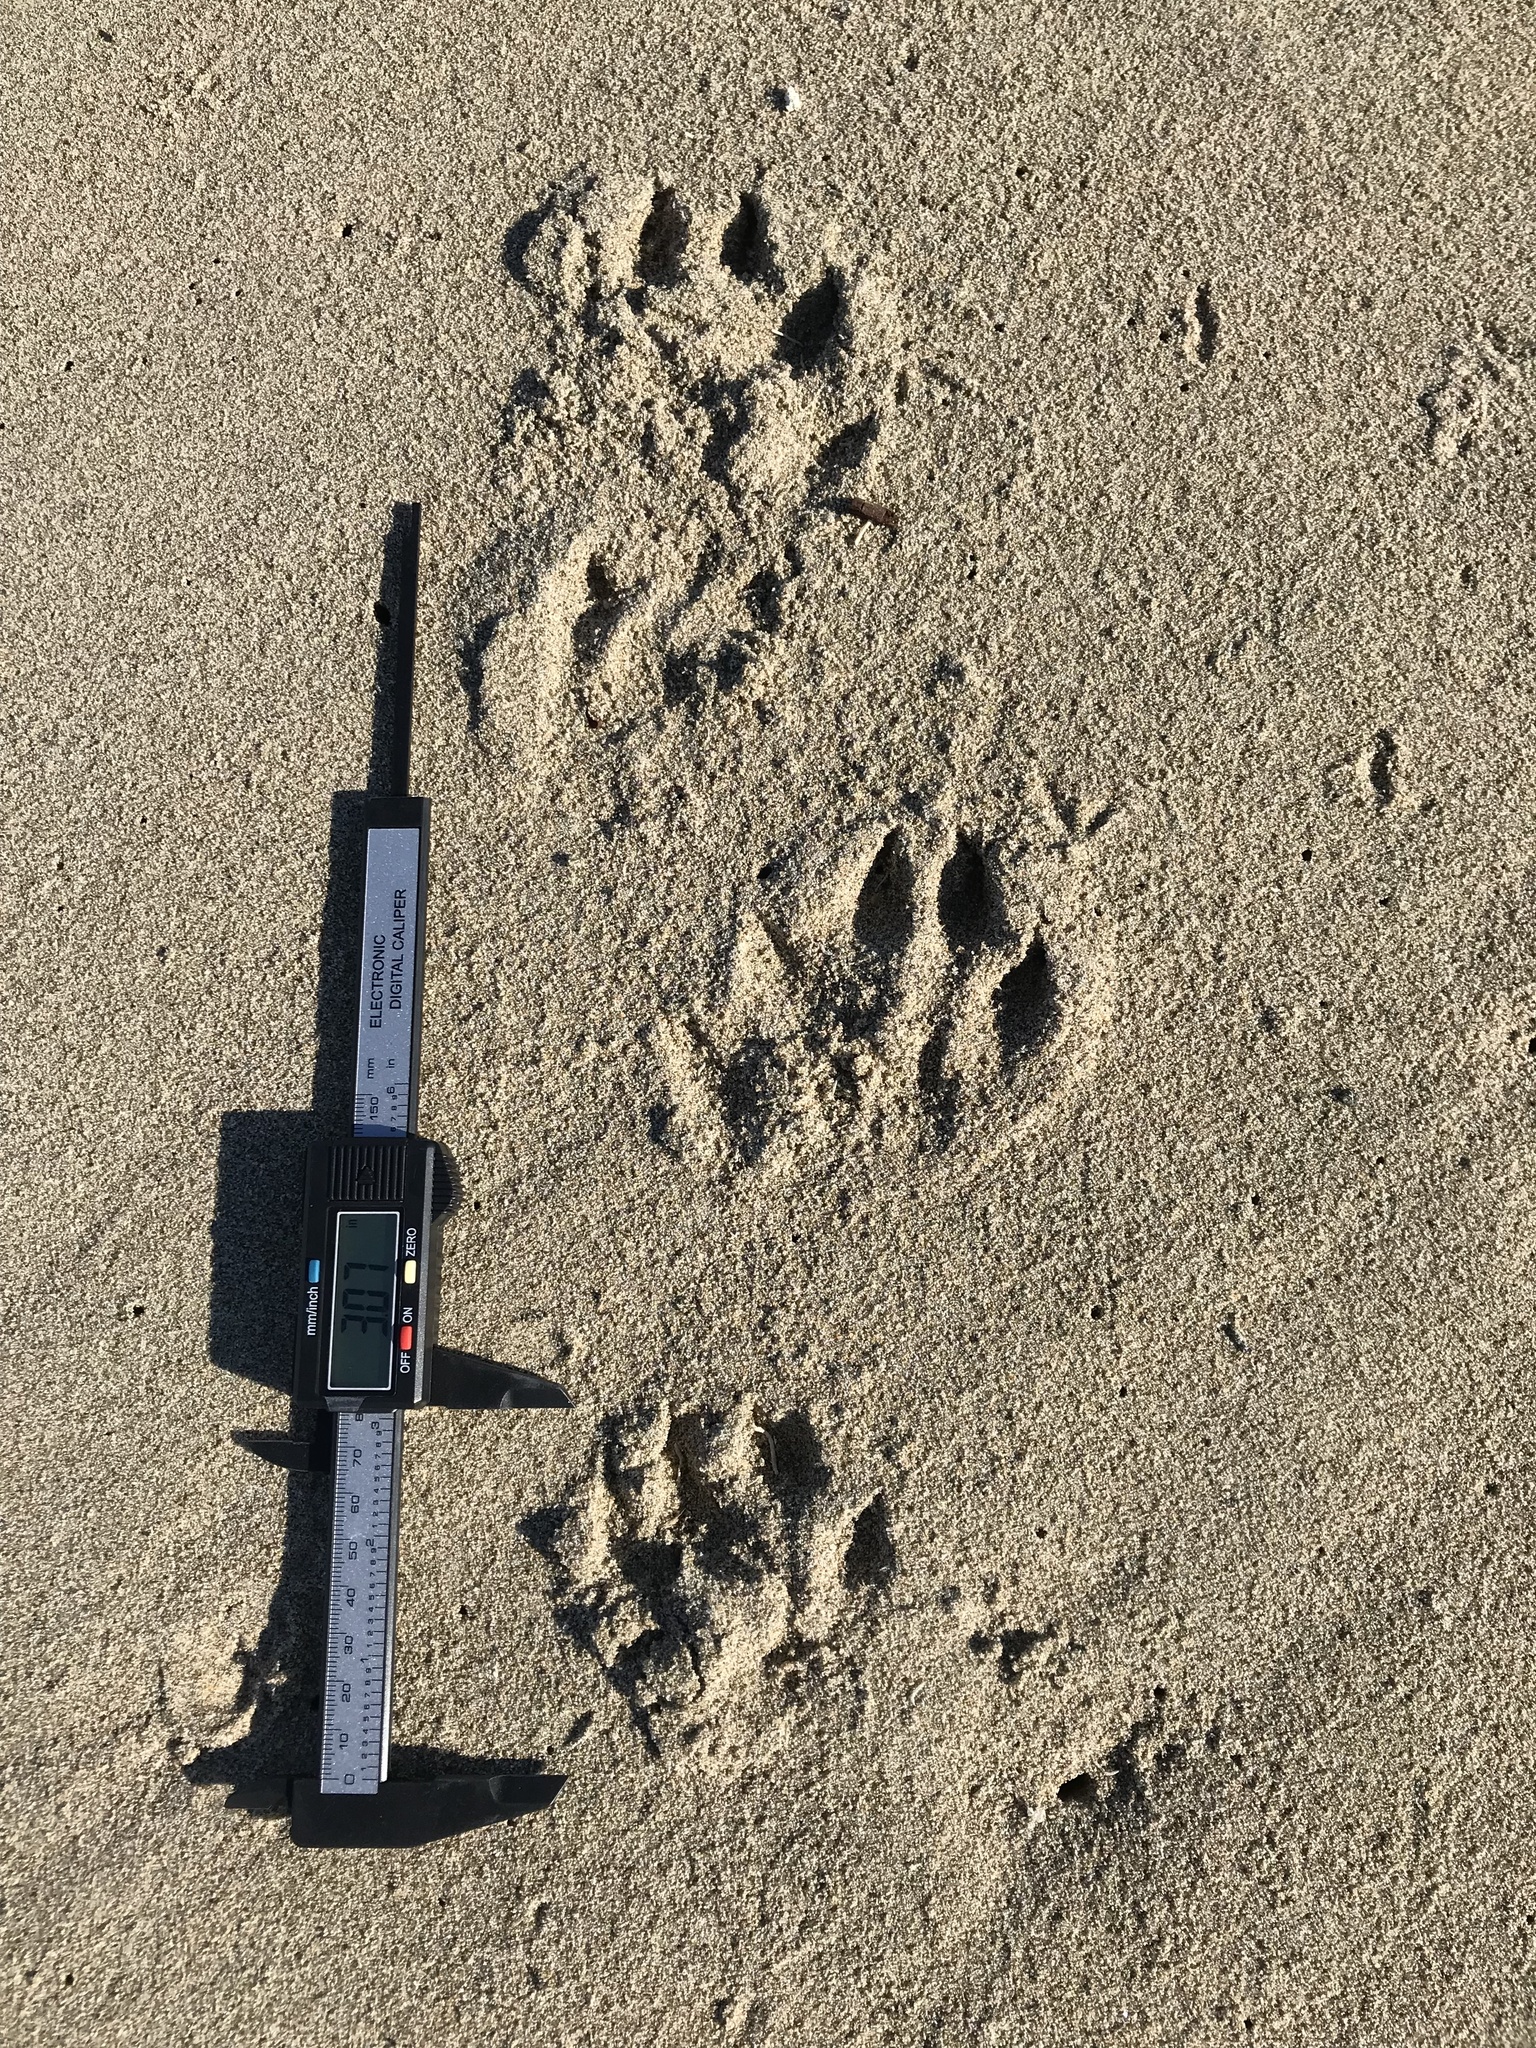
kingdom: Animalia
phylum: Chordata
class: Mammalia
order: Carnivora
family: Mustelidae
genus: Lontra
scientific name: Lontra canadensis
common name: North american river otter
